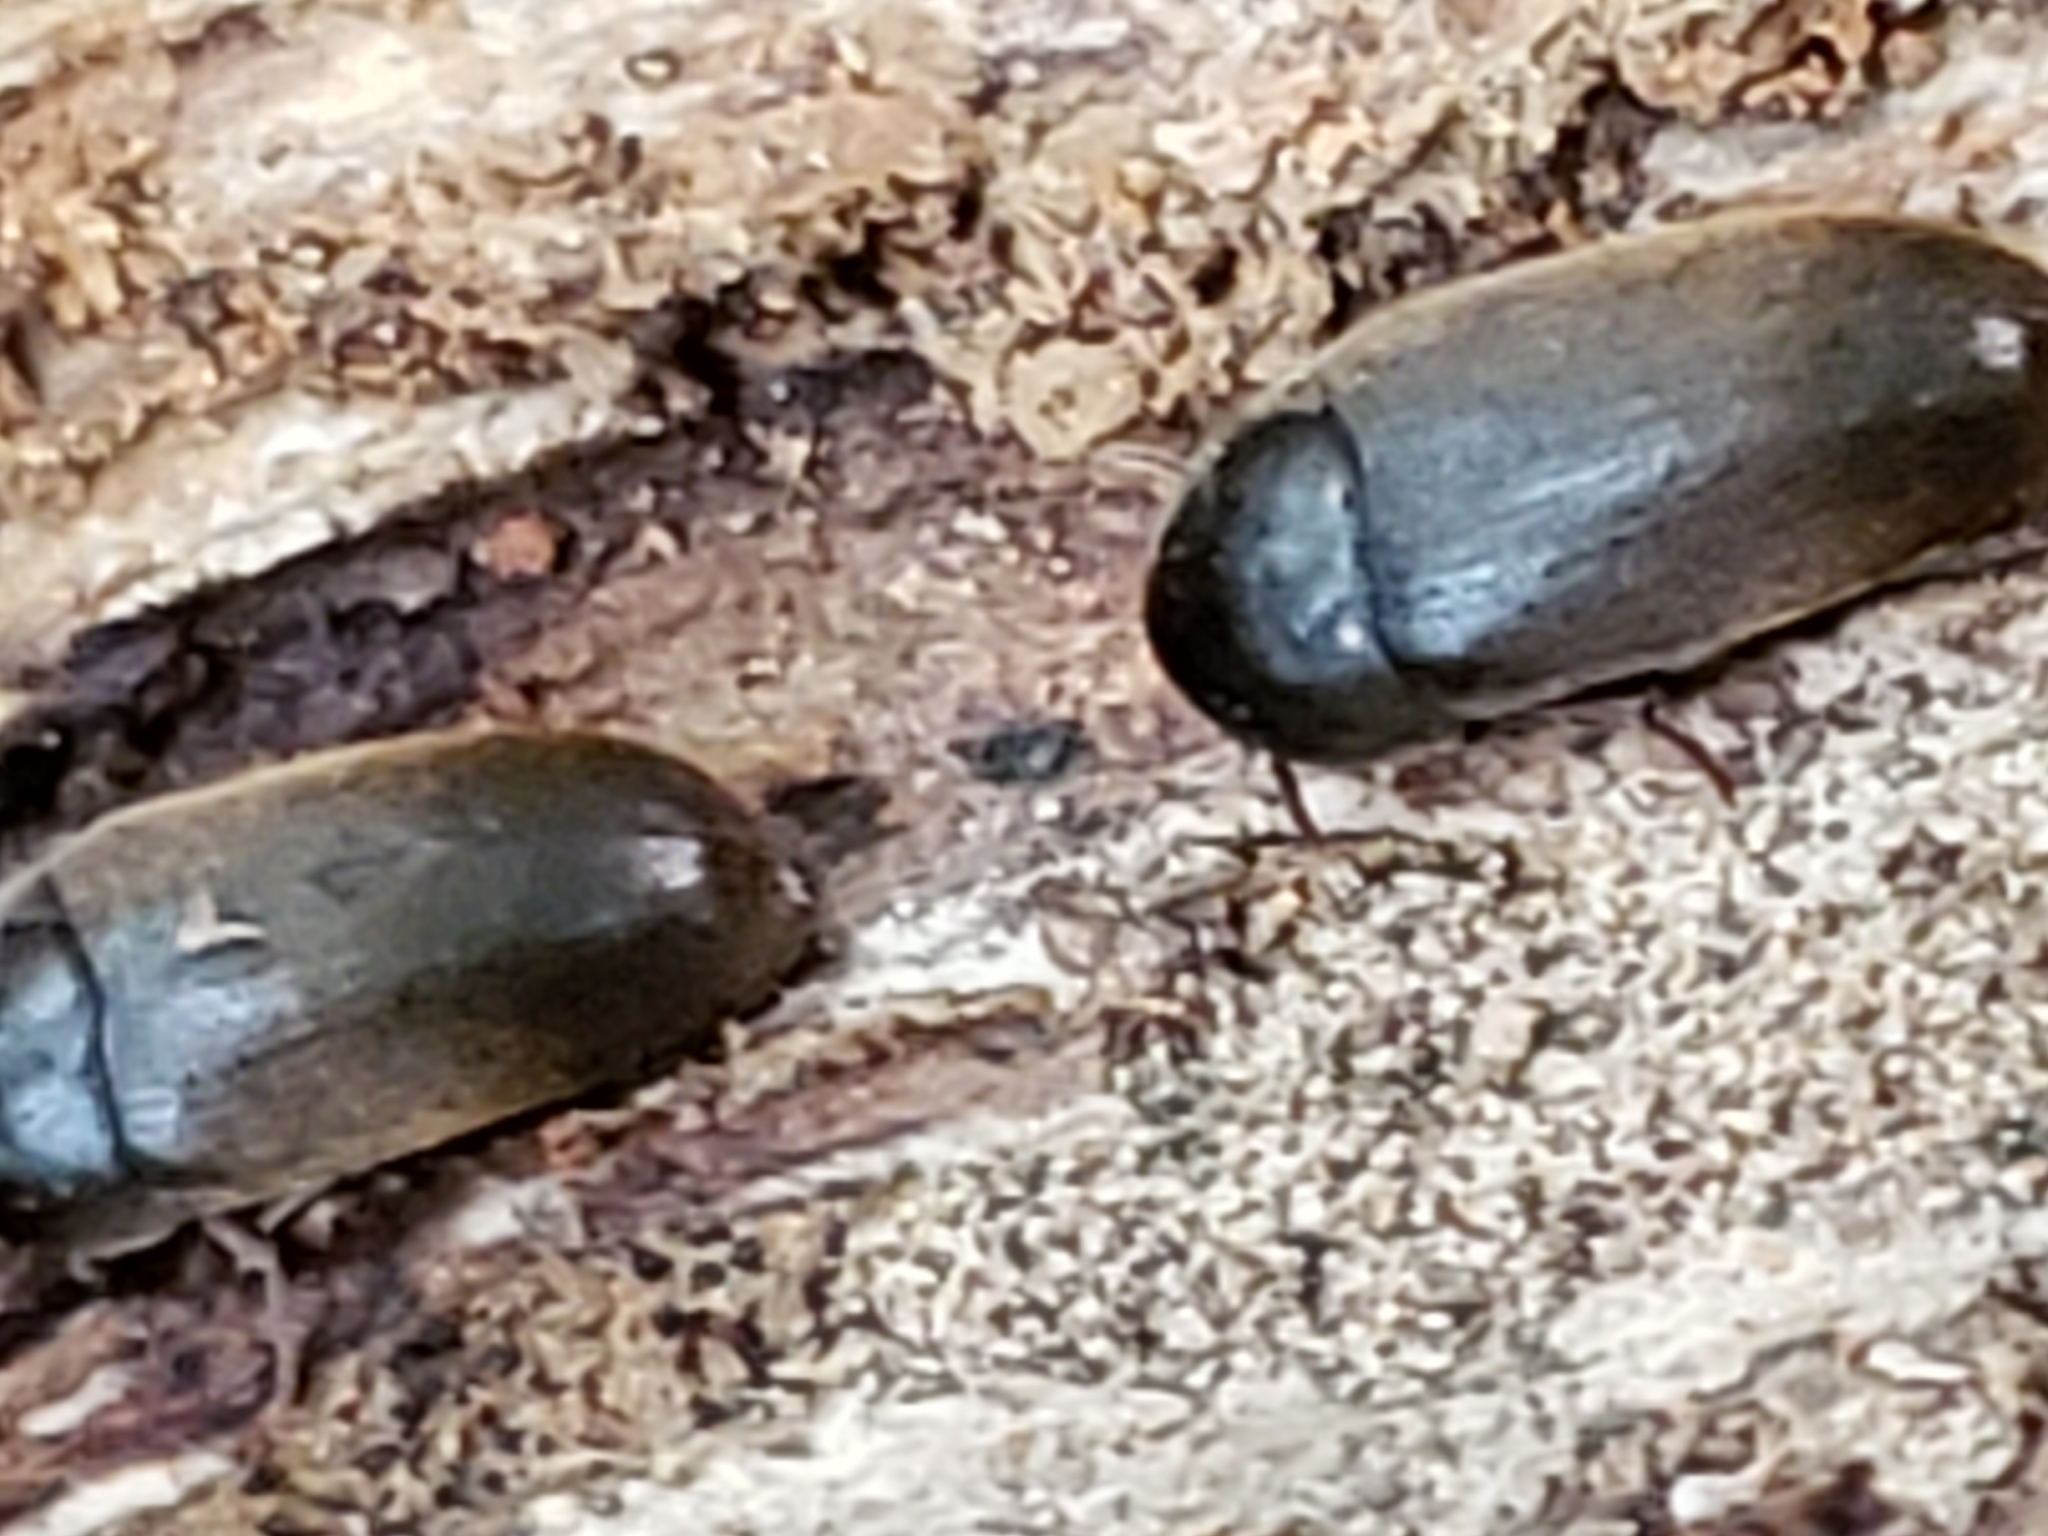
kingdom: Animalia
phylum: Arthropoda
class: Insecta
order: Coleoptera
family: Tetratomidae
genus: Eustrophus
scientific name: Eustrophus tomentosus
